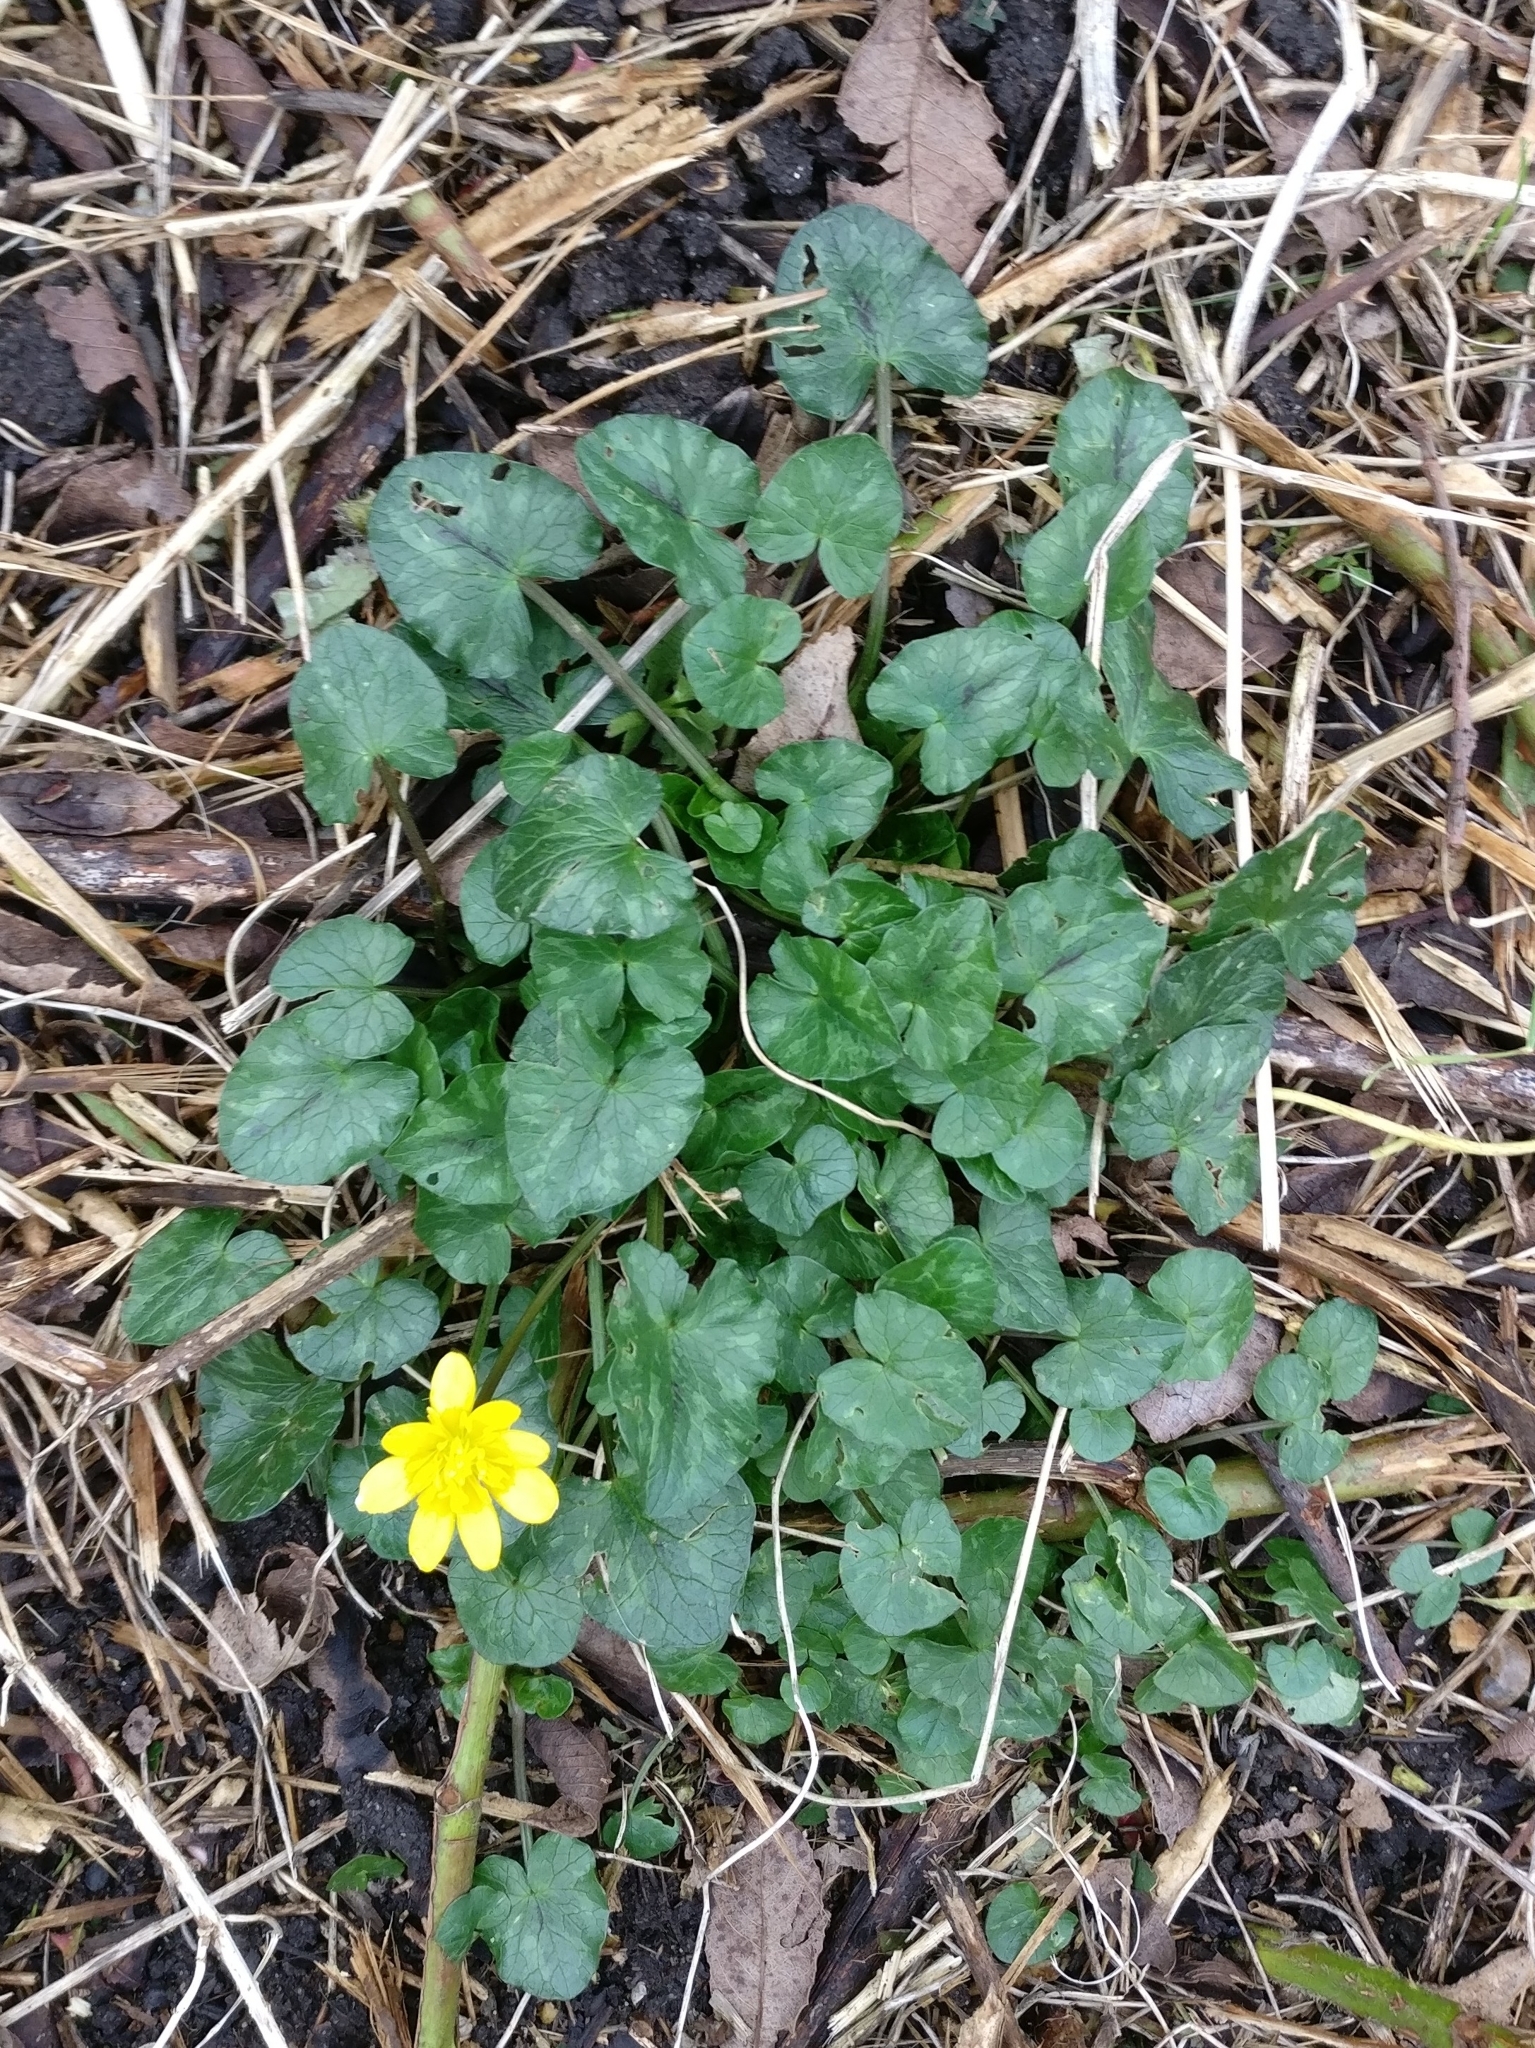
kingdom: Plantae
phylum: Tracheophyta
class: Magnoliopsida
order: Ranunculales
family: Ranunculaceae
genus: Ficaria
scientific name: Ficaria verna
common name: Lesser celandine
